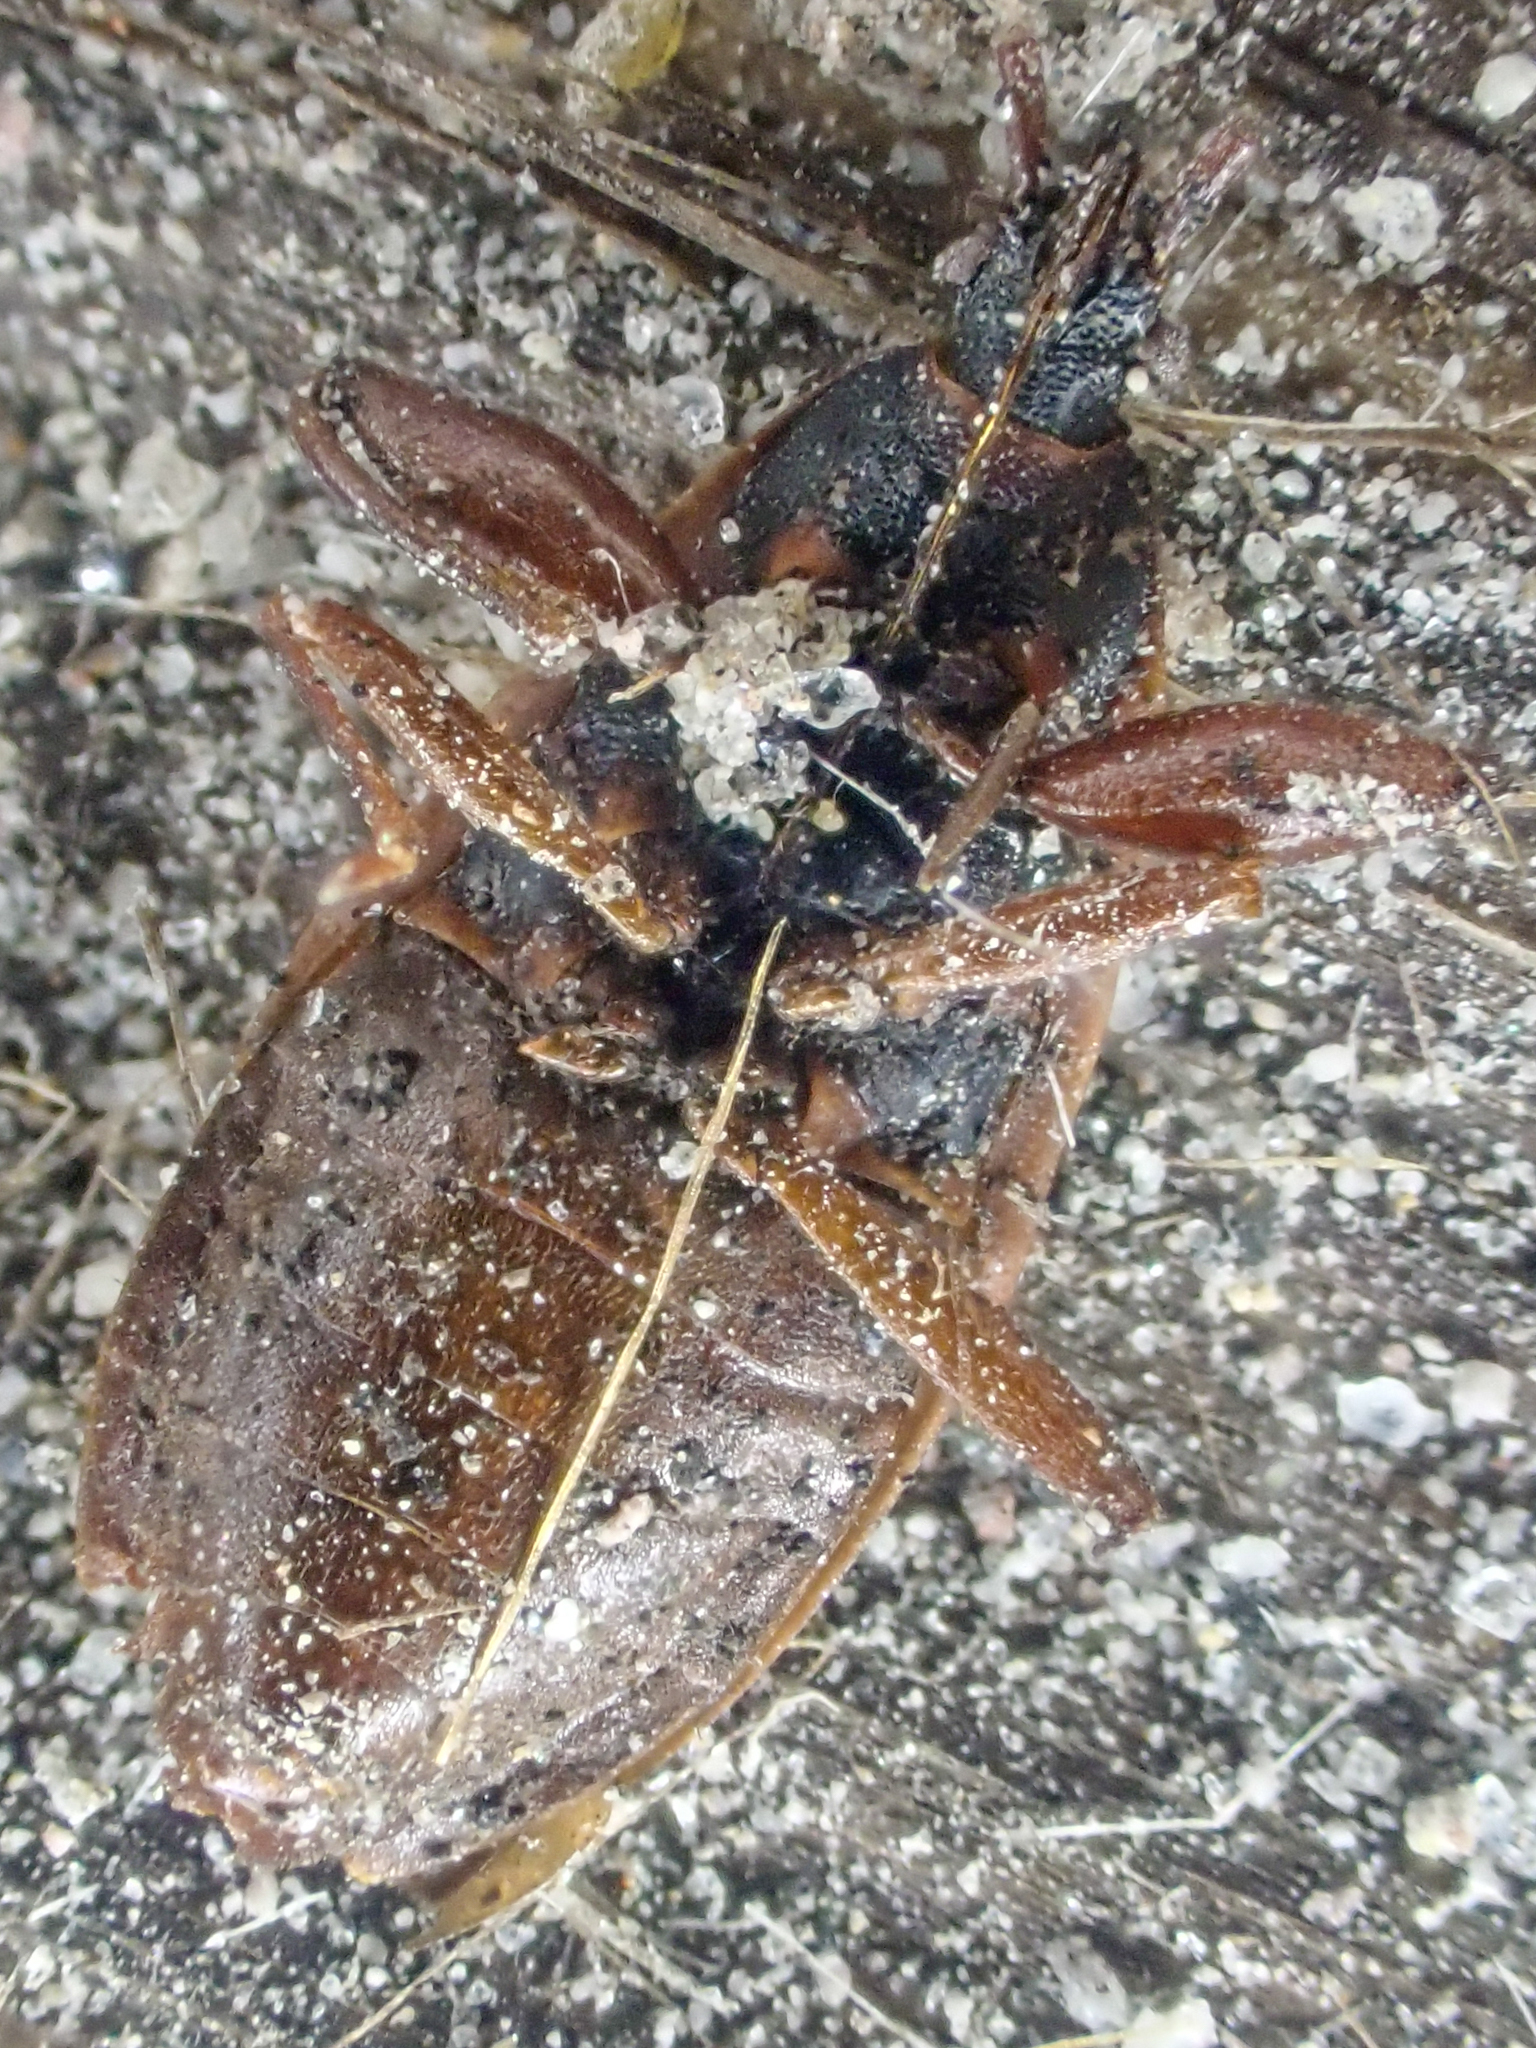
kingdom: Animalia
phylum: Arthropoda
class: Insecta
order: Hemiptera
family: Rhyparochromidae
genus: Gastrodes
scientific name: Gastrodes pacificus
